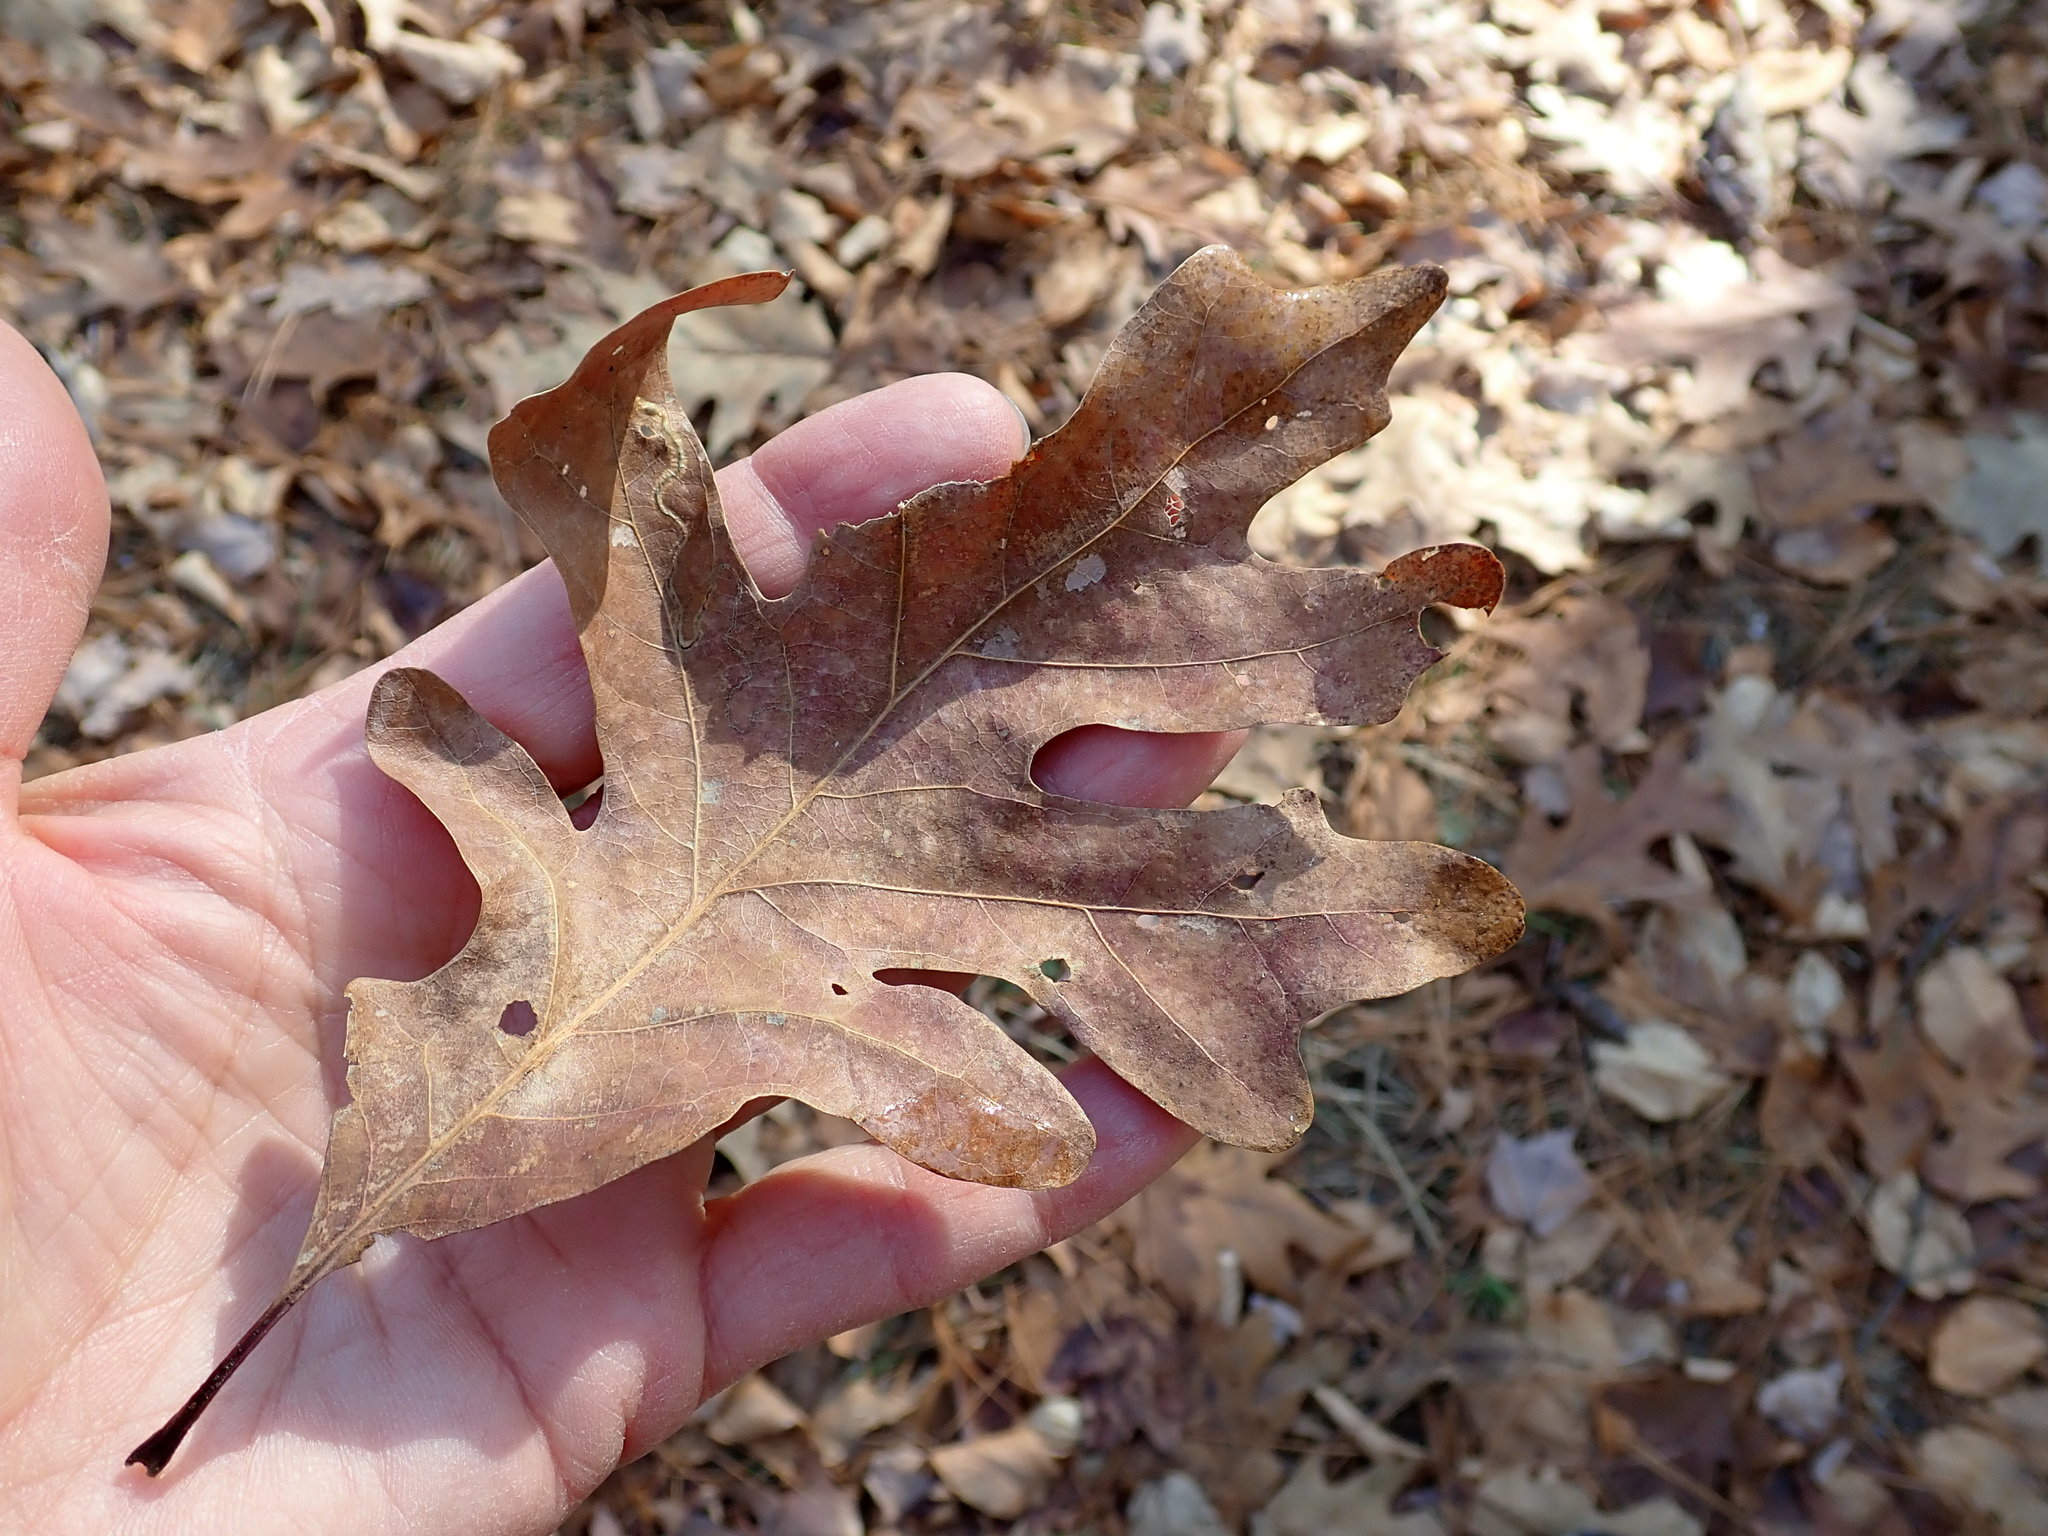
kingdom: Plantae
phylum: Tracheophyta
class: Magnoliopsida
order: Fagales
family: Fagaceae
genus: Quercus
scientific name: Quercus alba
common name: White oak
